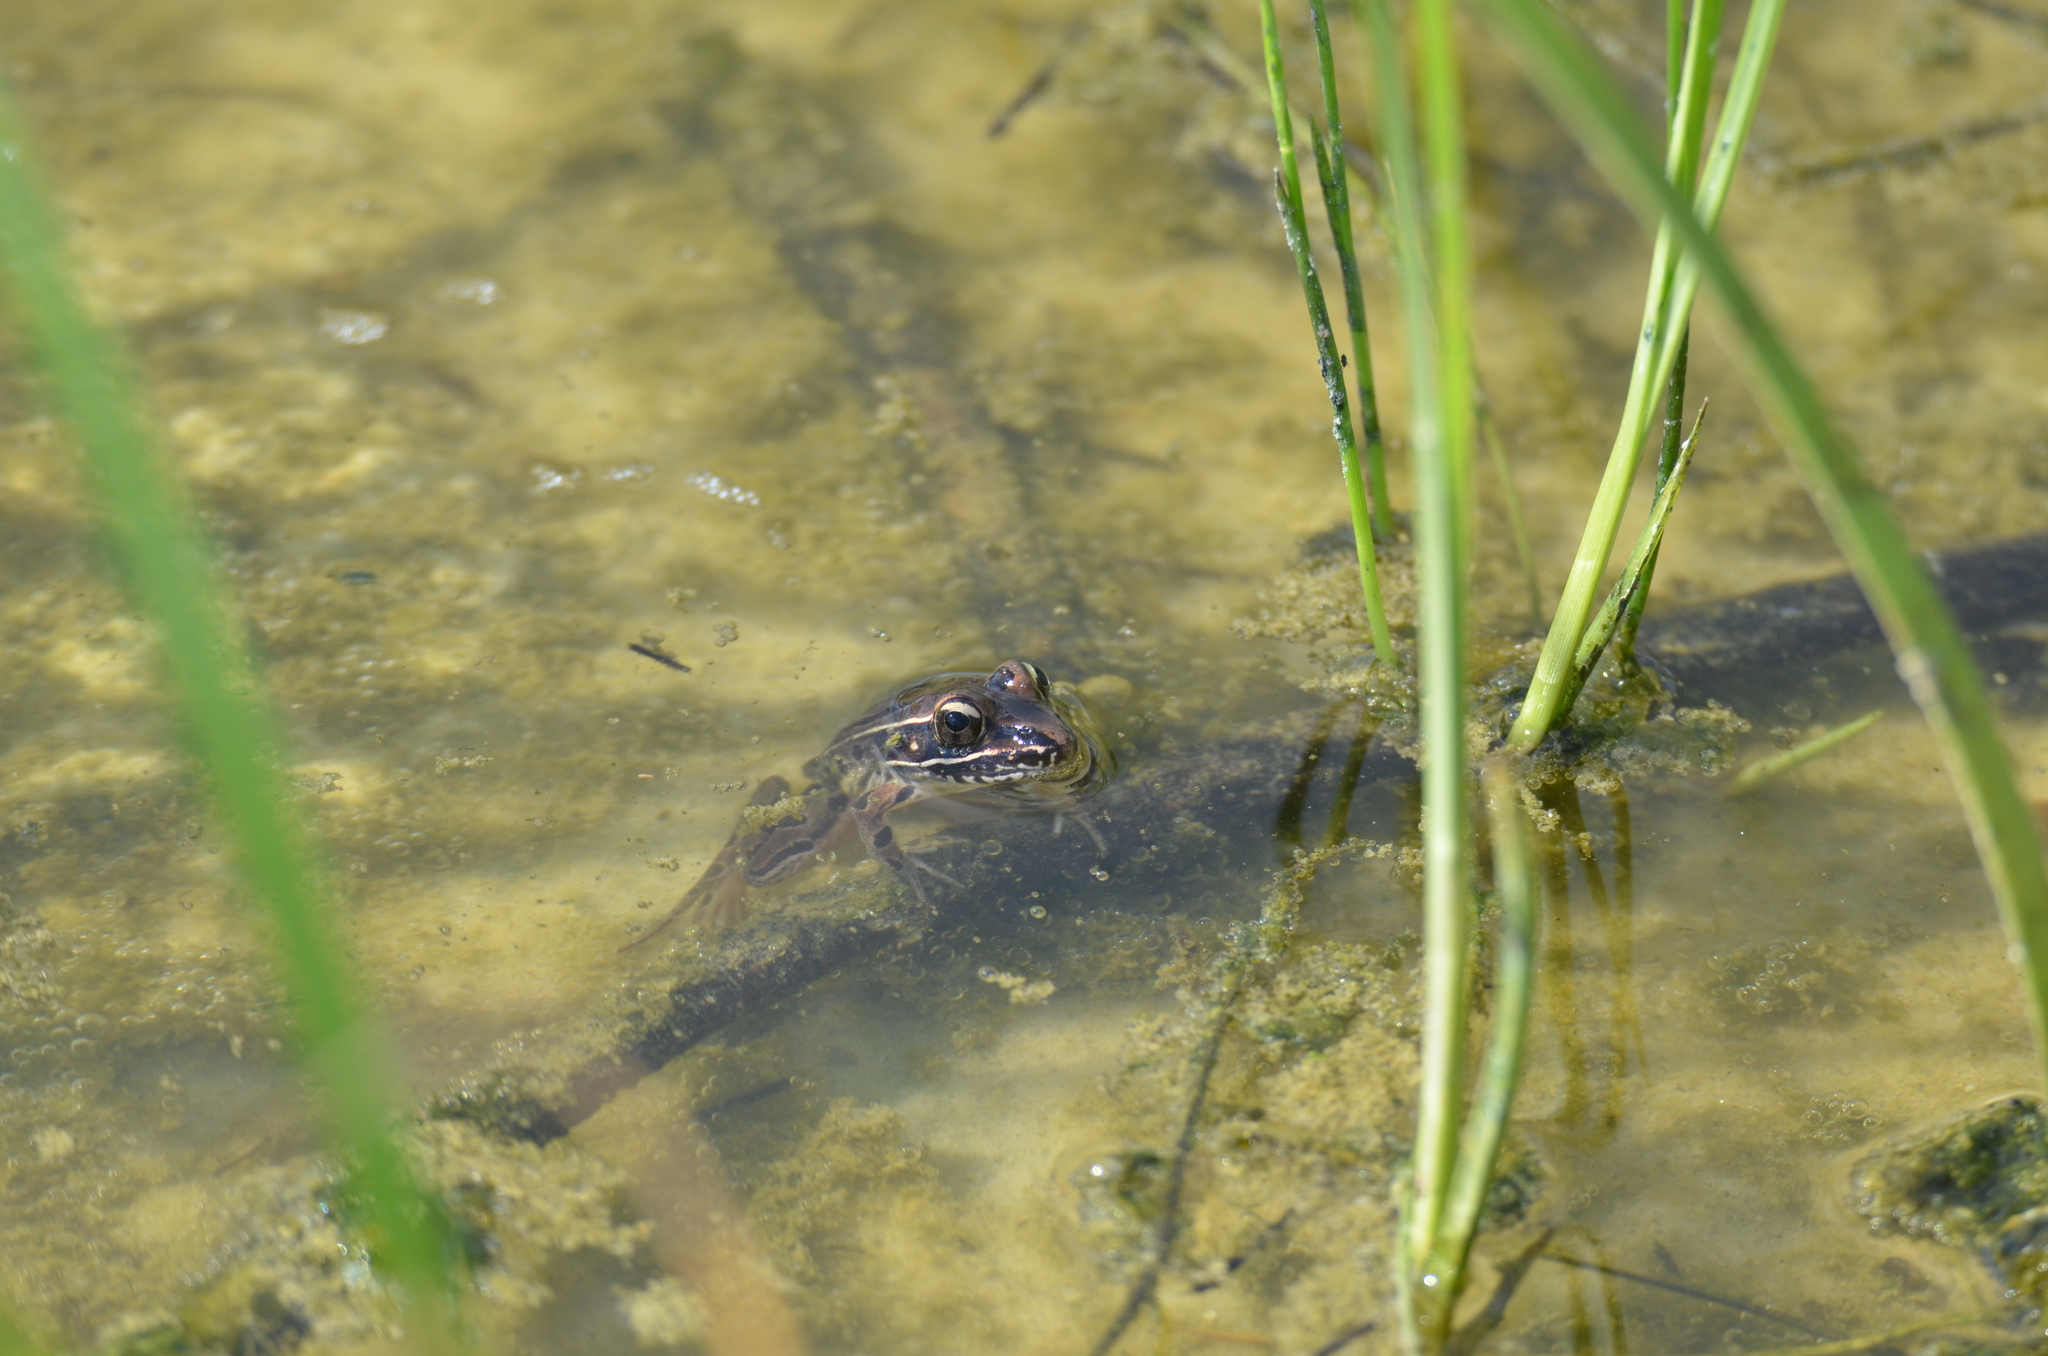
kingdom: Animalia
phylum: Chordata
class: Amphibia
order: Anura
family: Ranidae
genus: Lithobates
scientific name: Lithobates sphenocephalus
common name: Southern leopard frog
